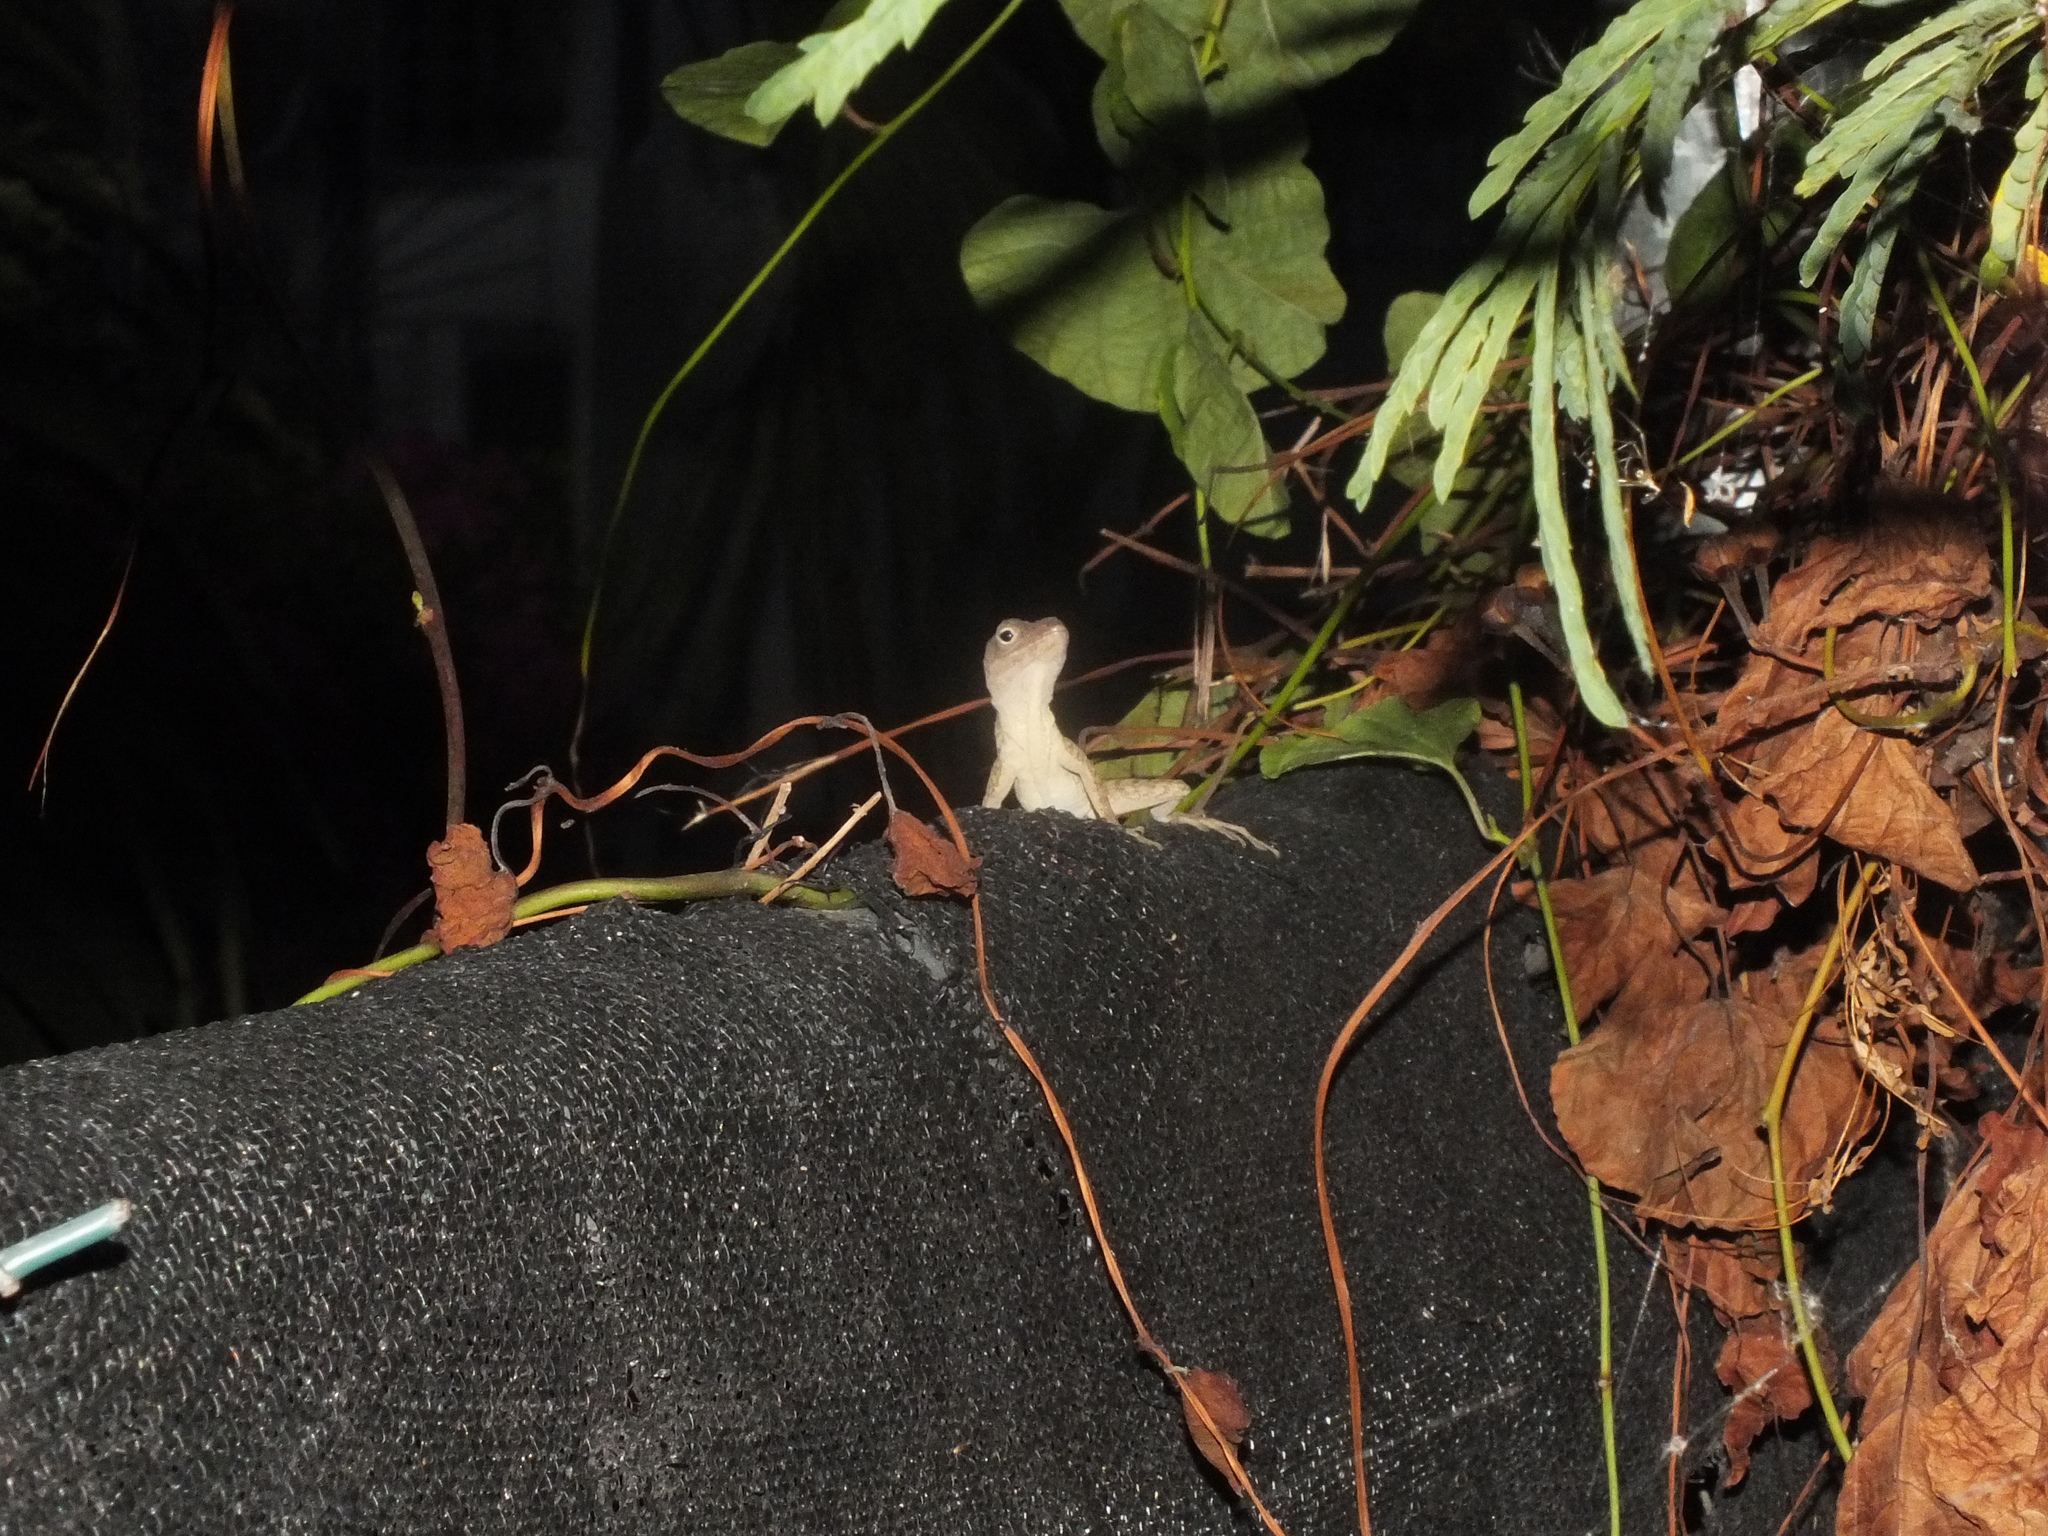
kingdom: Animalia
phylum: Chordata
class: Squamata
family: Dactyloidae
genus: Anolis
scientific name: Anolis lineatopus
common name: Stripefoot anole
